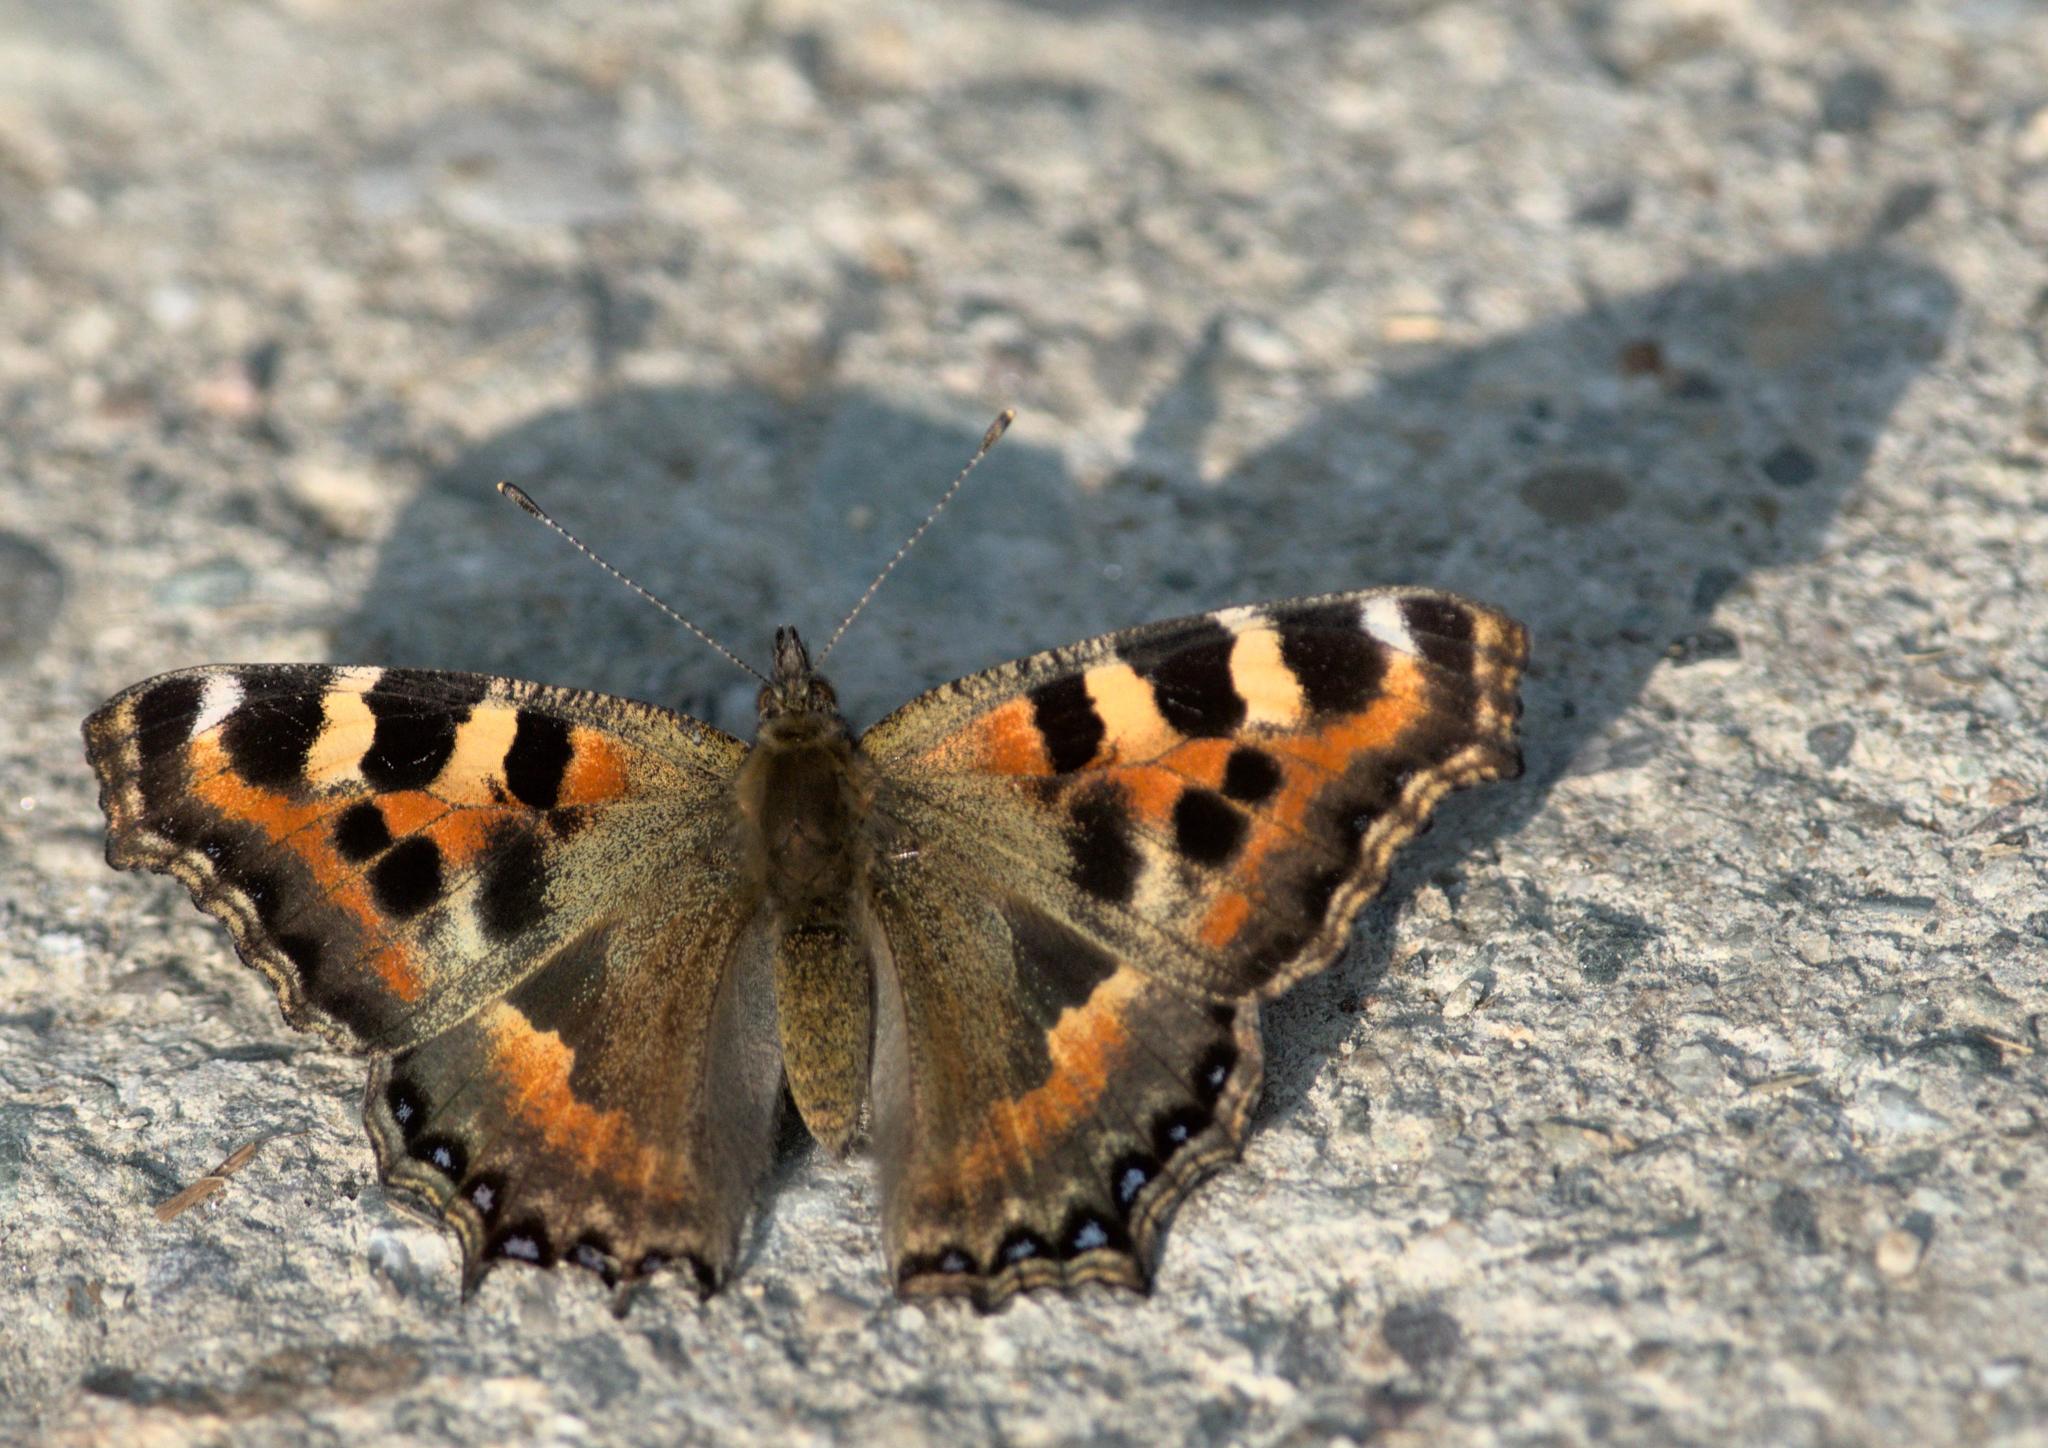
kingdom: Animalia
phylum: Arthropoda
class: Insecta
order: Lepidoptera
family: Nymphalidae
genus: Aglais
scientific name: Aglais caschmirensis
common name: Indian tortoiseshell
